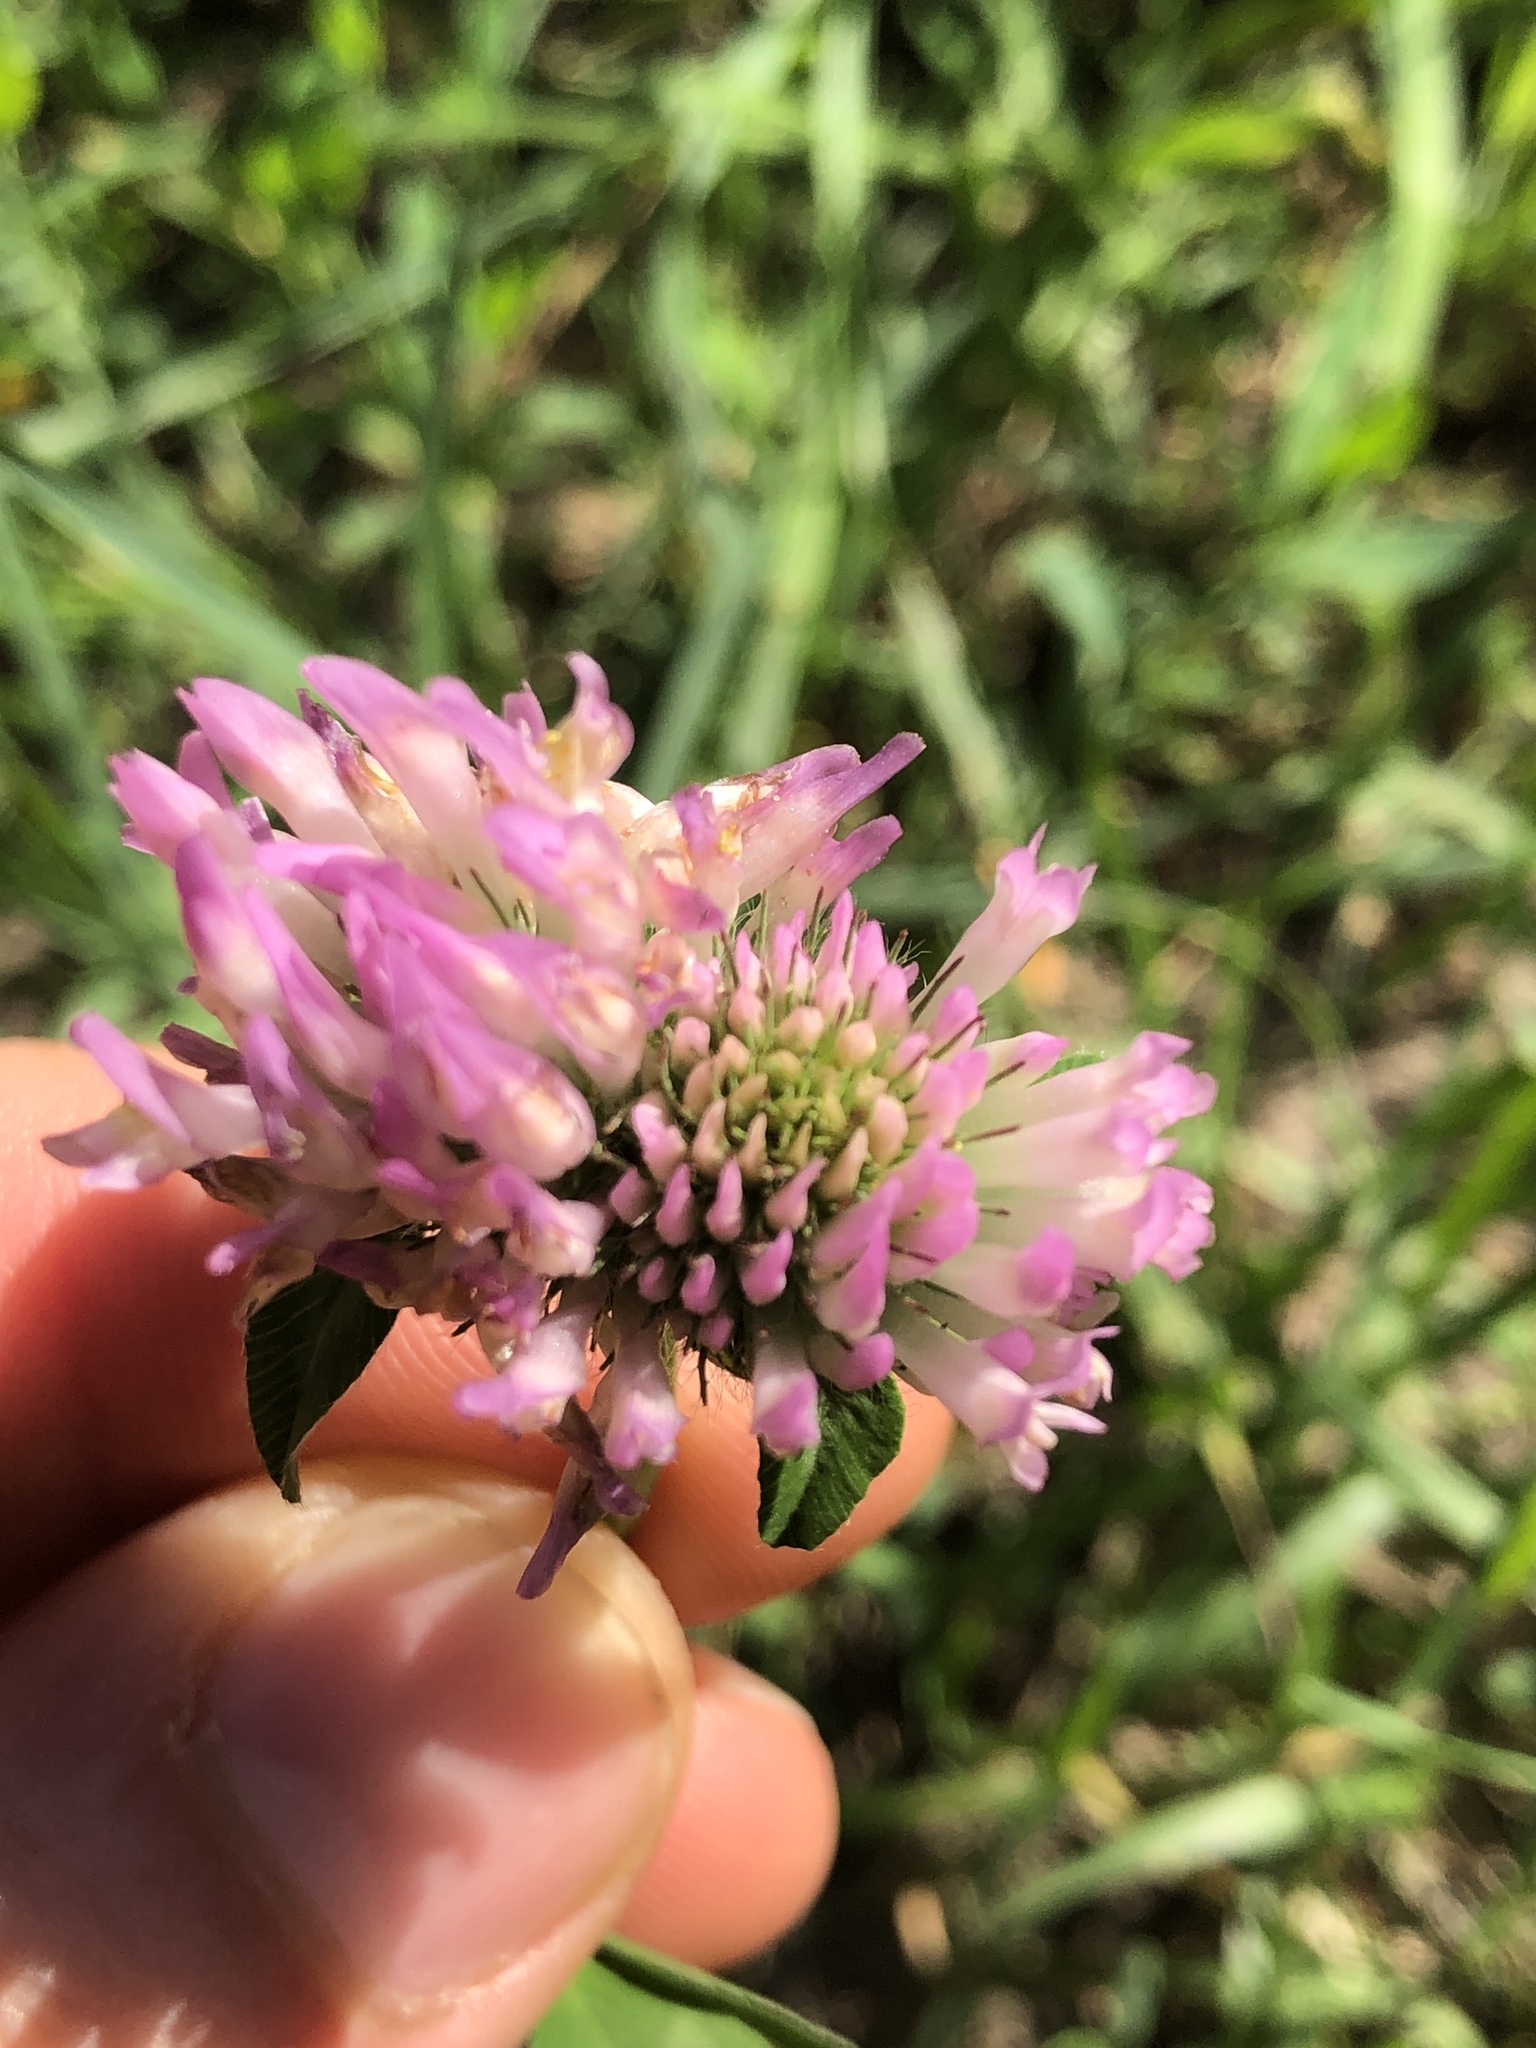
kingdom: Plantae
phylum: Tracheophyta
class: Magnoliopsida
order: Fabales
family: Fabaceae
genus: Trifolium
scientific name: Trifolium pratense
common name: Red clover
